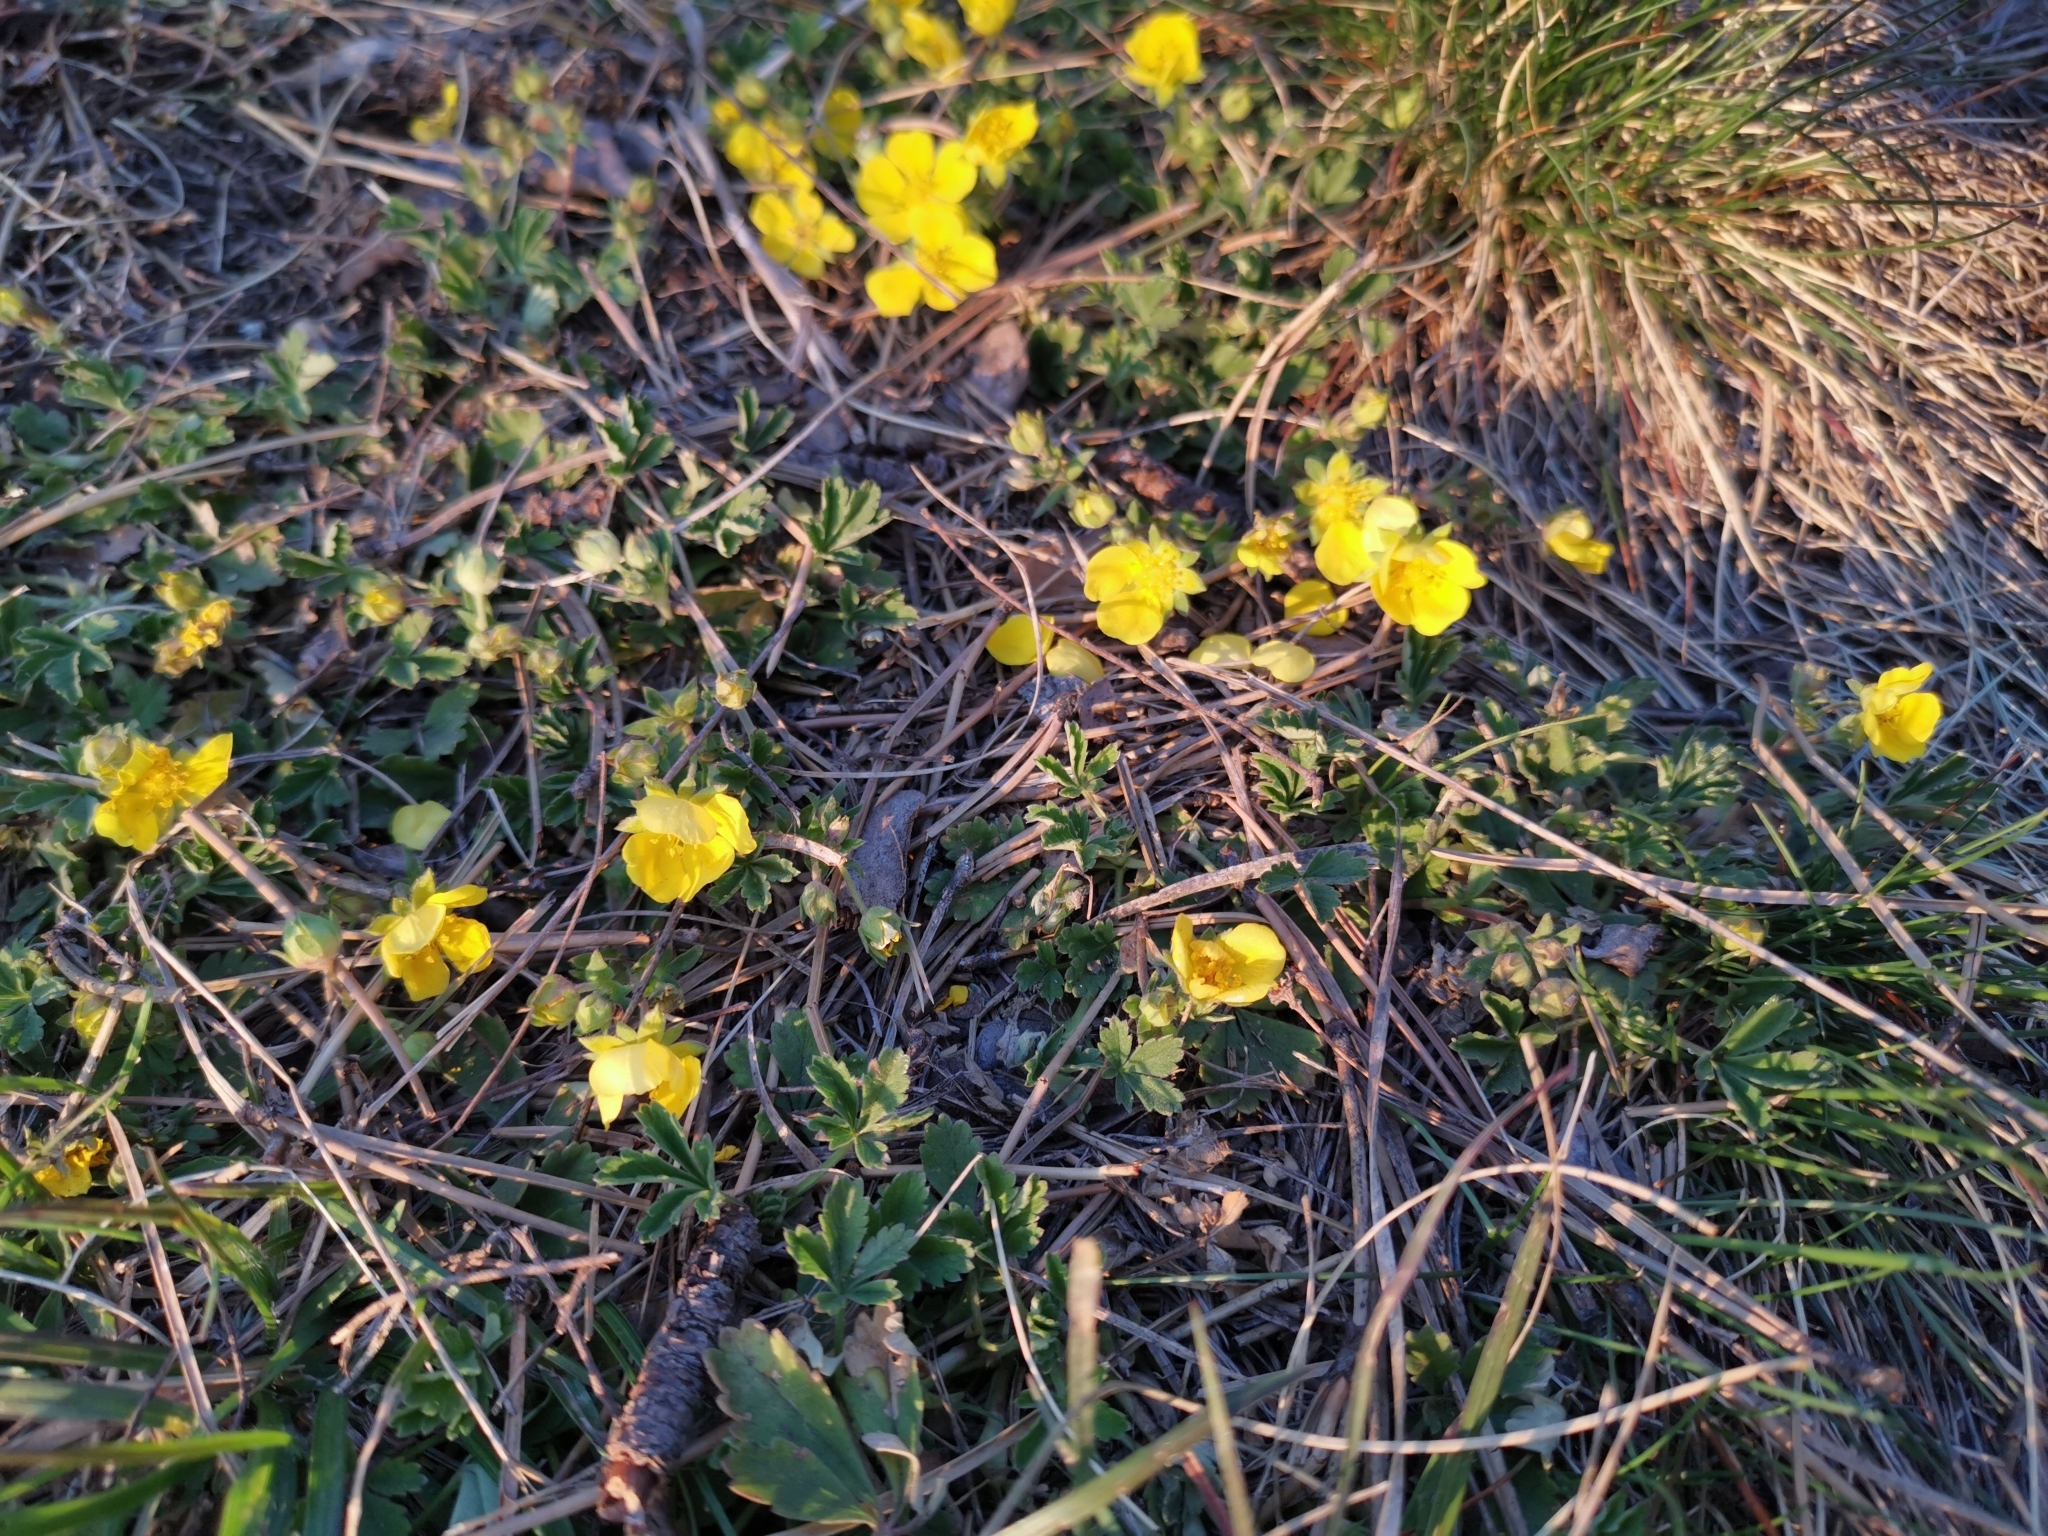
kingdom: Plantae
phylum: Tracheophyta
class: Magnoliopsida
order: Rosales
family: Rosaceae
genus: Potentilla
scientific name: Potentilla incana
